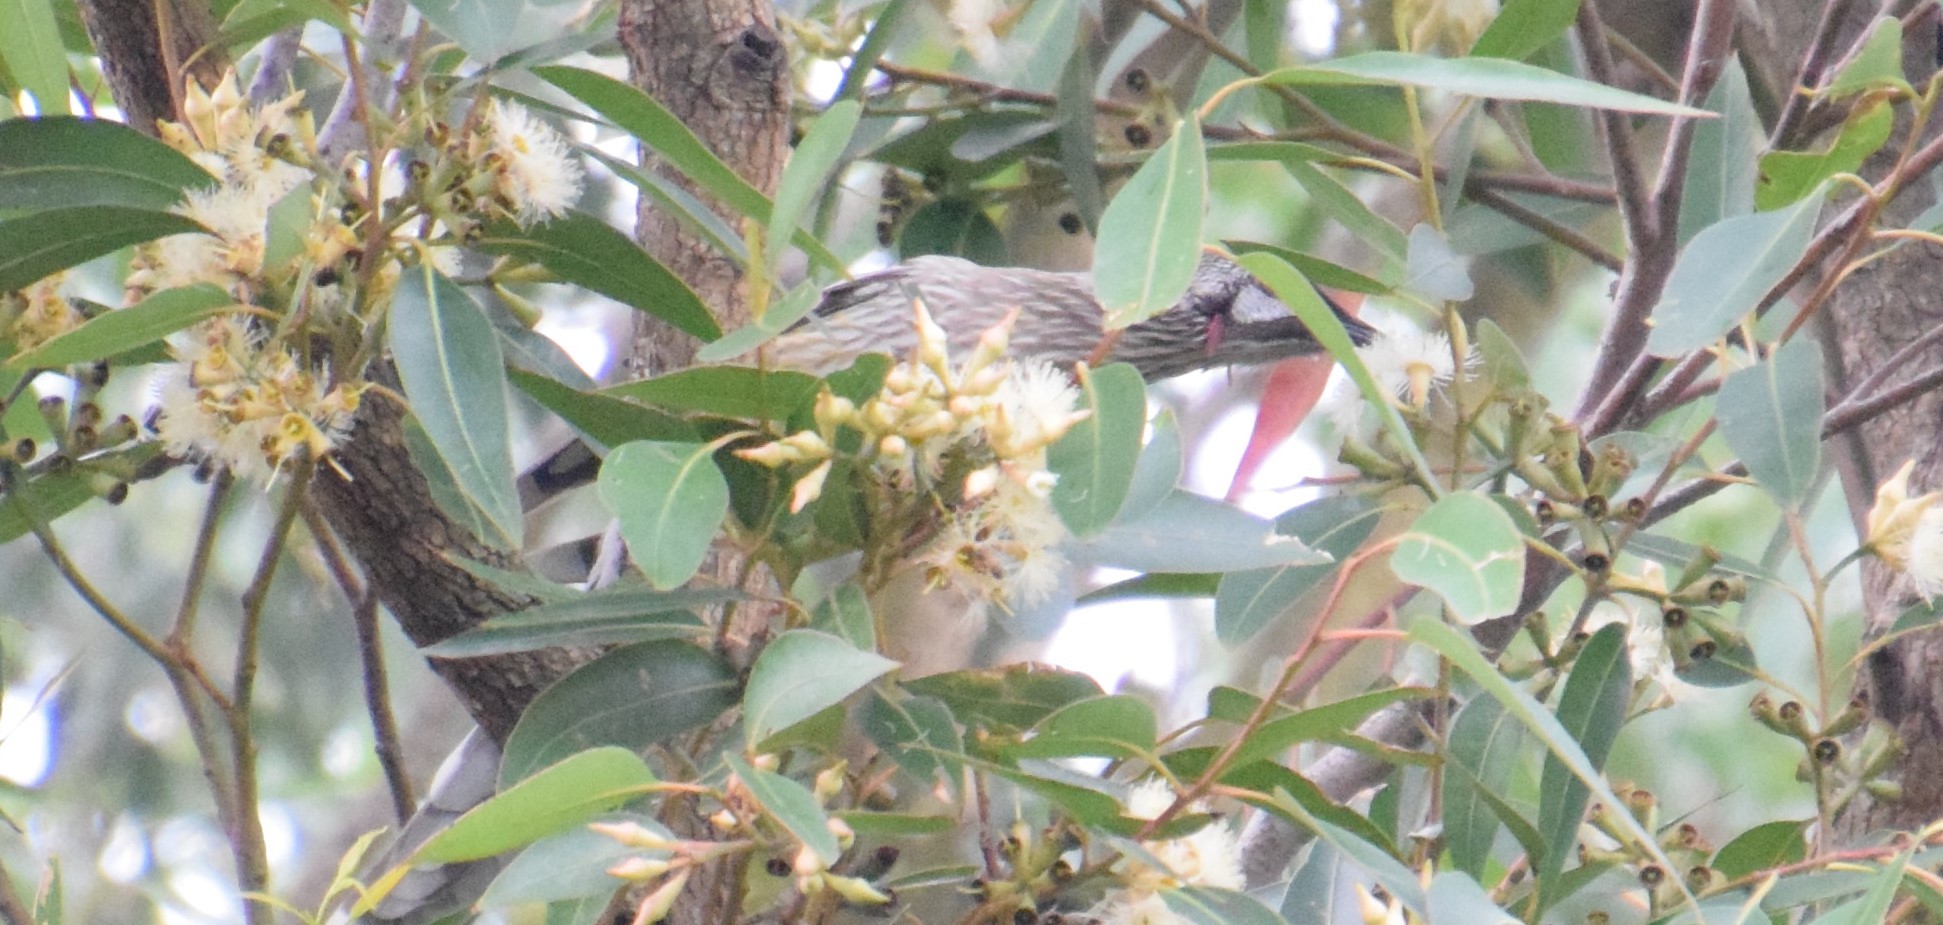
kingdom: Animalia
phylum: Chordata
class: Aves
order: Passeriformes
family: Meliphagidae
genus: Anthochaera
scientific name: Anthochaera carunculata
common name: Red wattlebird
